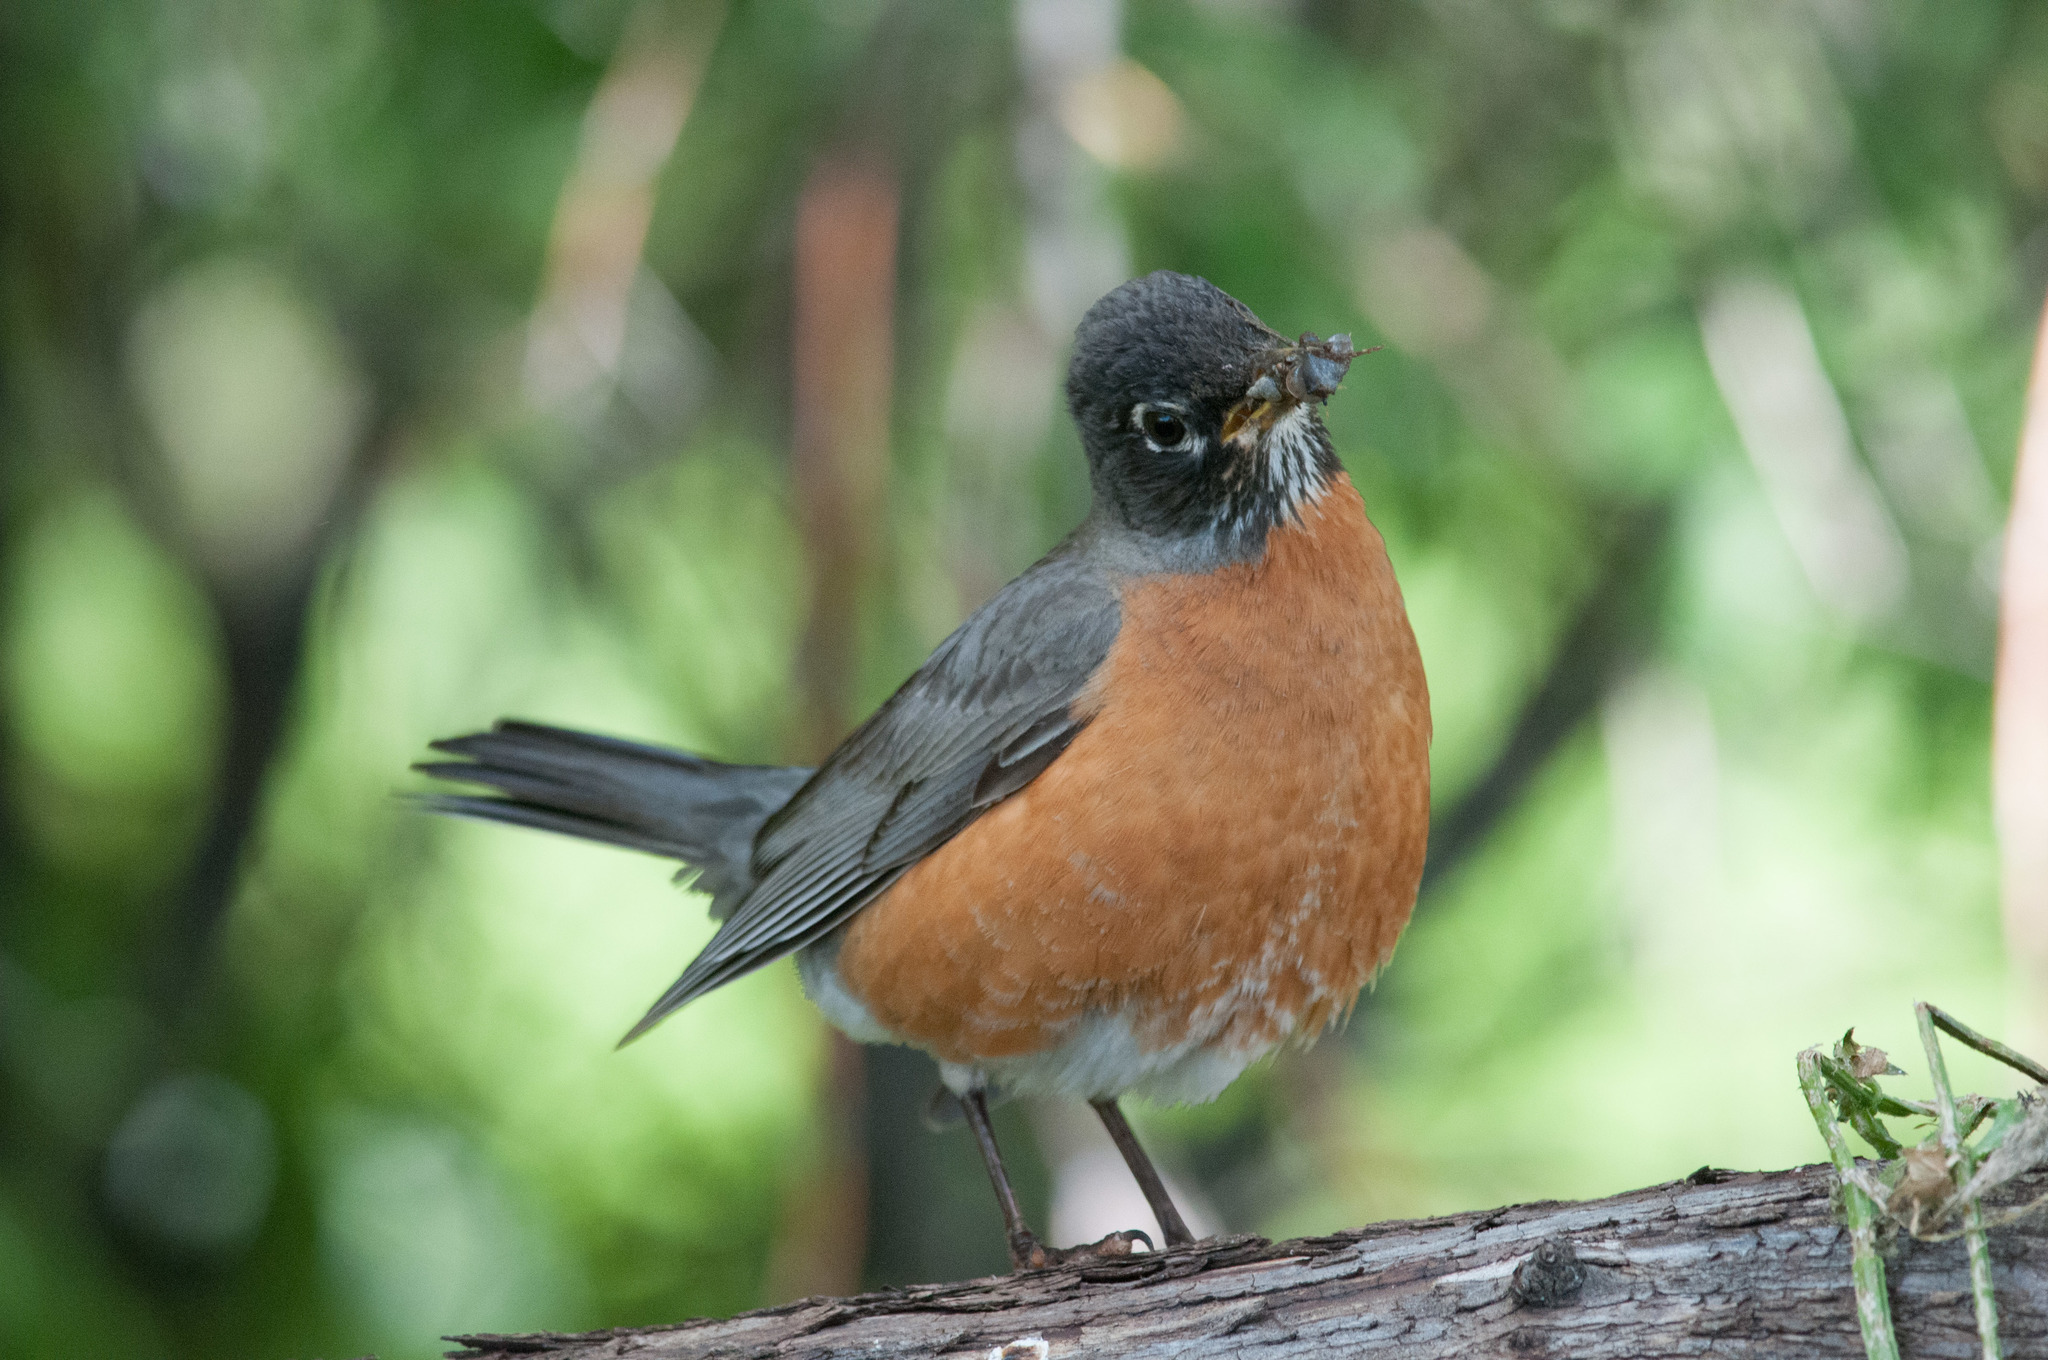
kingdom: Animalia
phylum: Chordata
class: Aves
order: Passeriformes
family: Turdidae
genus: Turdus
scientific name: Turdus migratorius
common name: American robin
